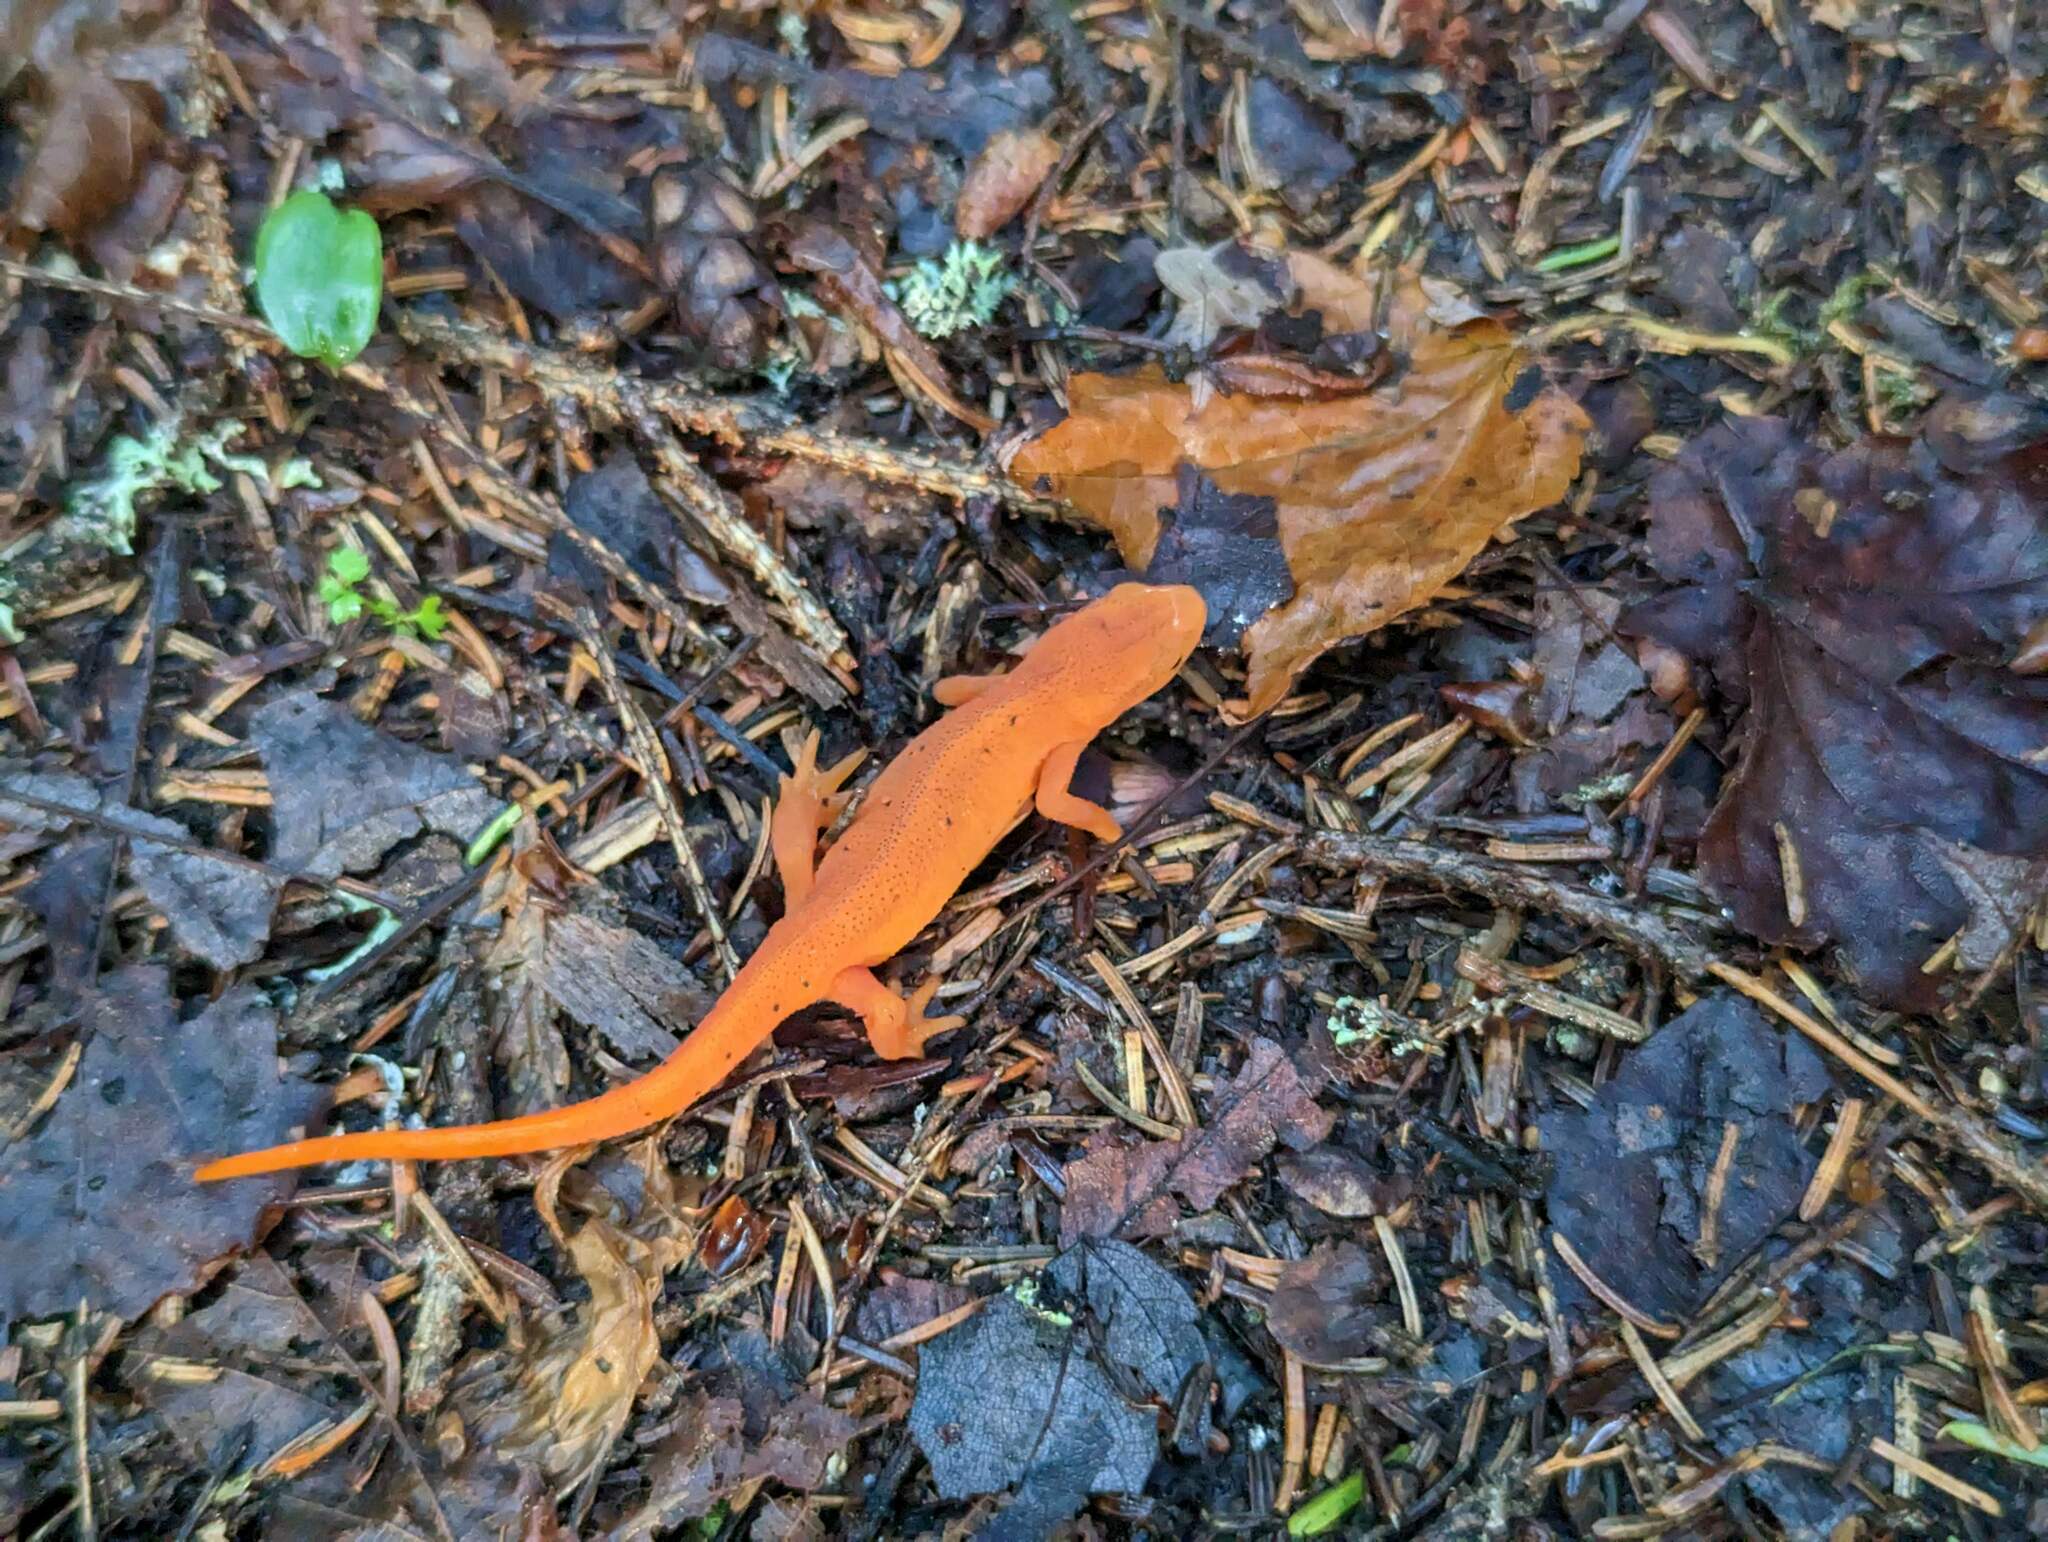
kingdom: Animalia
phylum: Chordata
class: Amphibia
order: Caudata
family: Salamandridae
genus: Notophthalmus
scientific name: Notophthalmus viridescens
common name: Eastern newt
